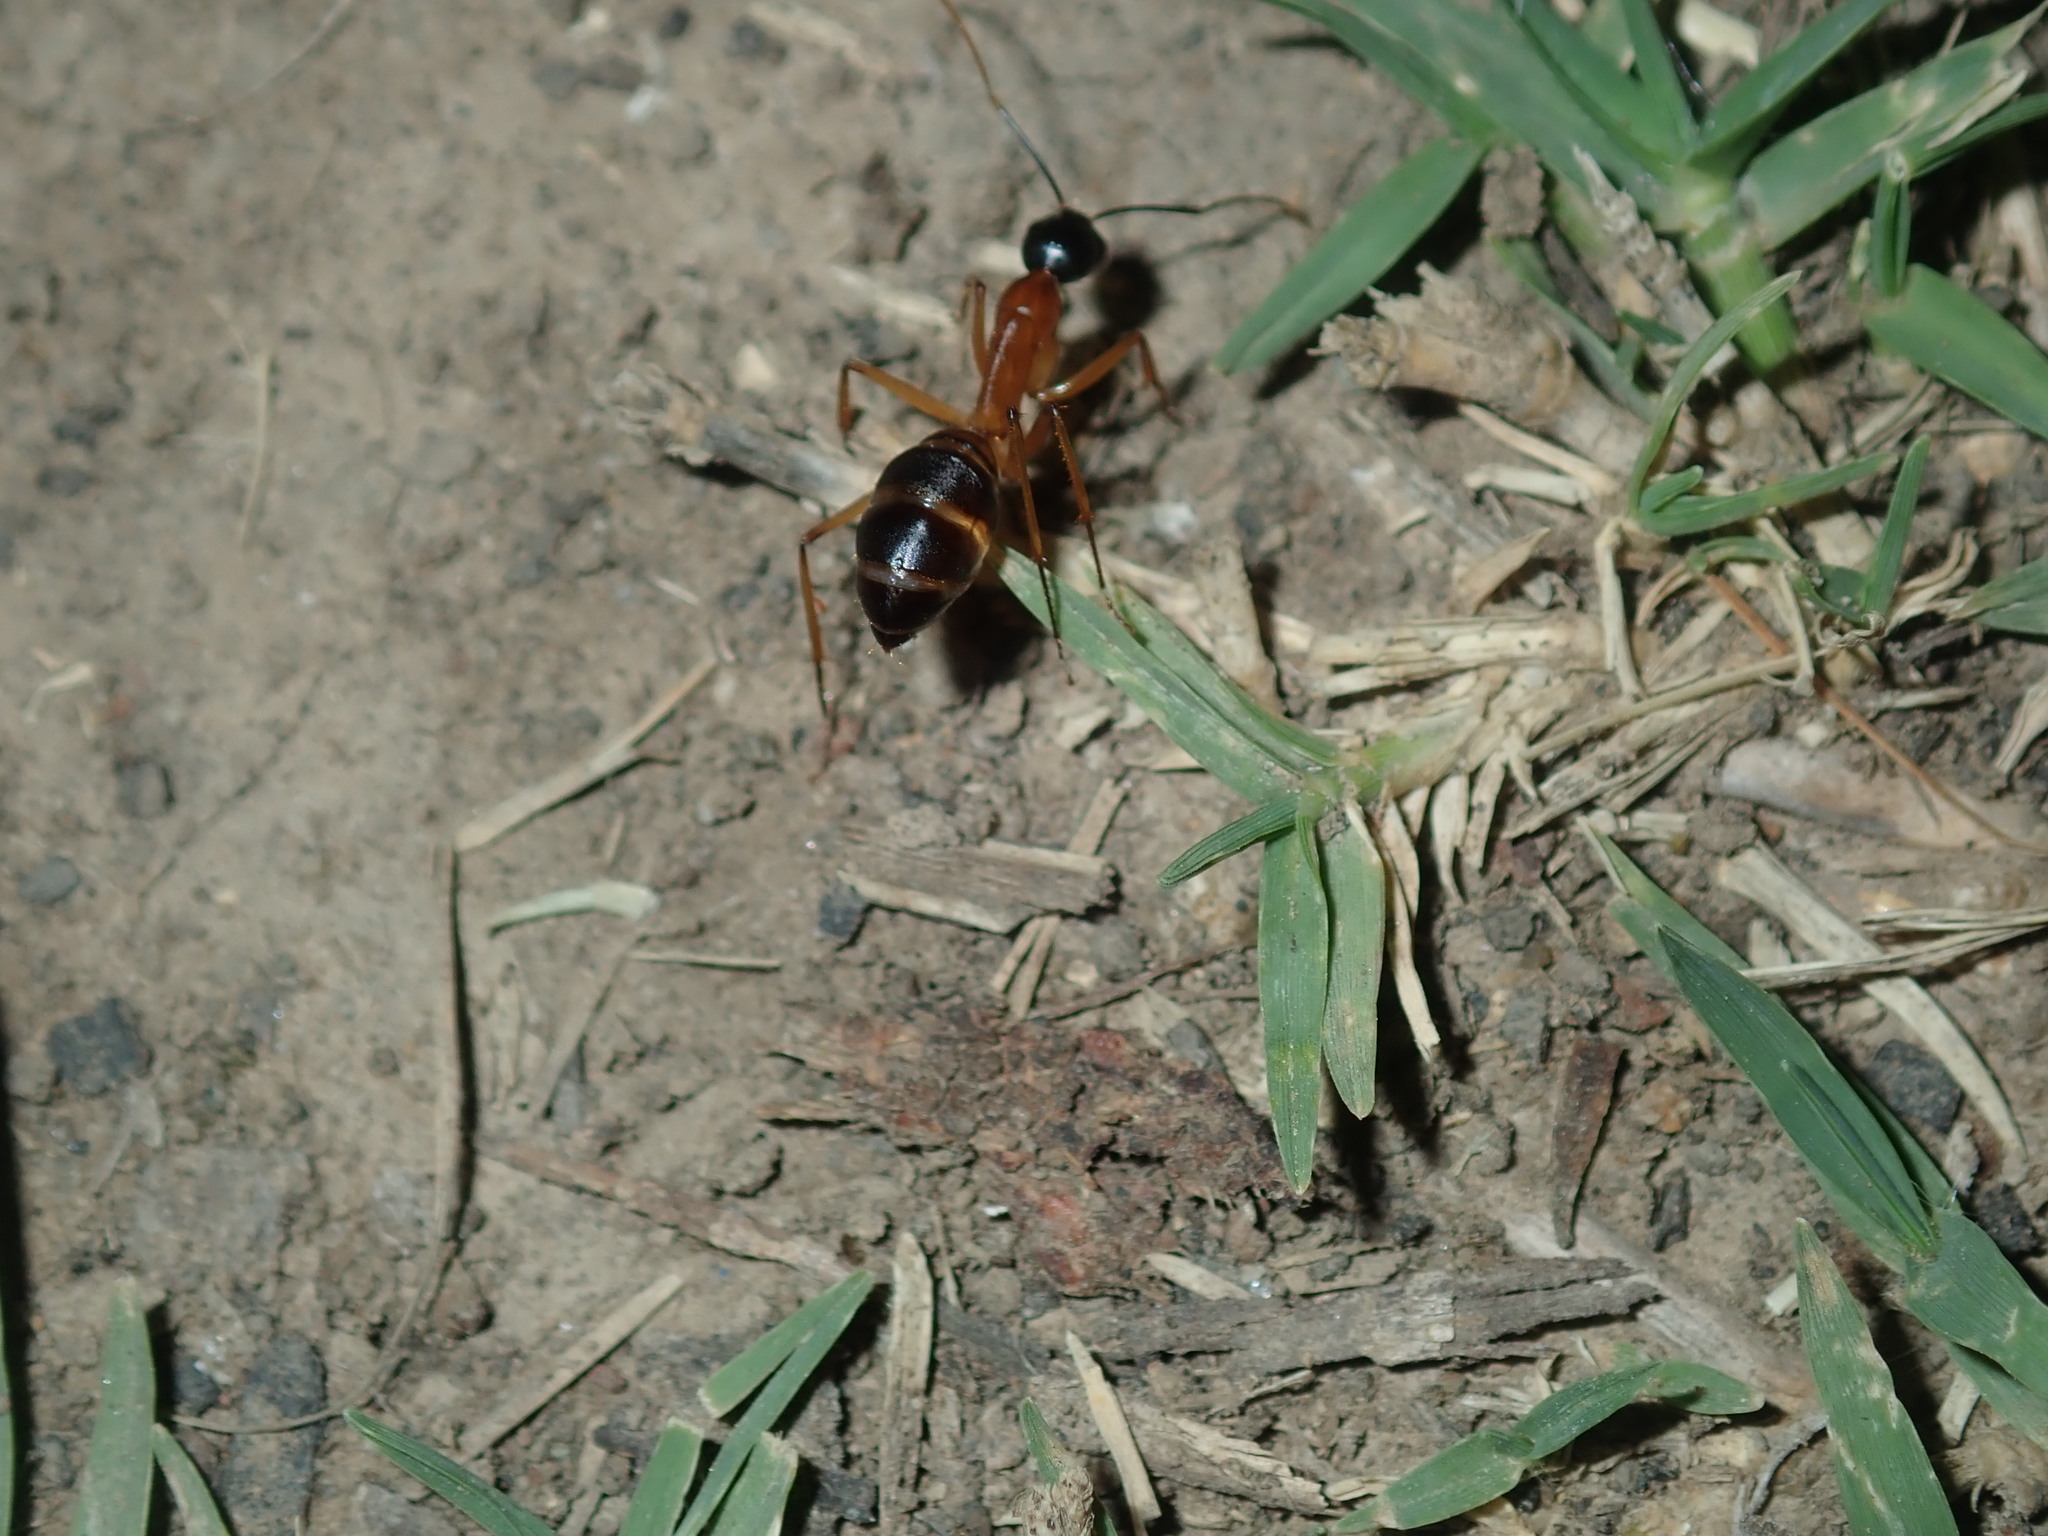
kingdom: Animalia
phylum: Arthropoda
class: Insecta
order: Hymenoptera
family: Formicidae
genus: Camponotus
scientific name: Camponotus consobrinus
